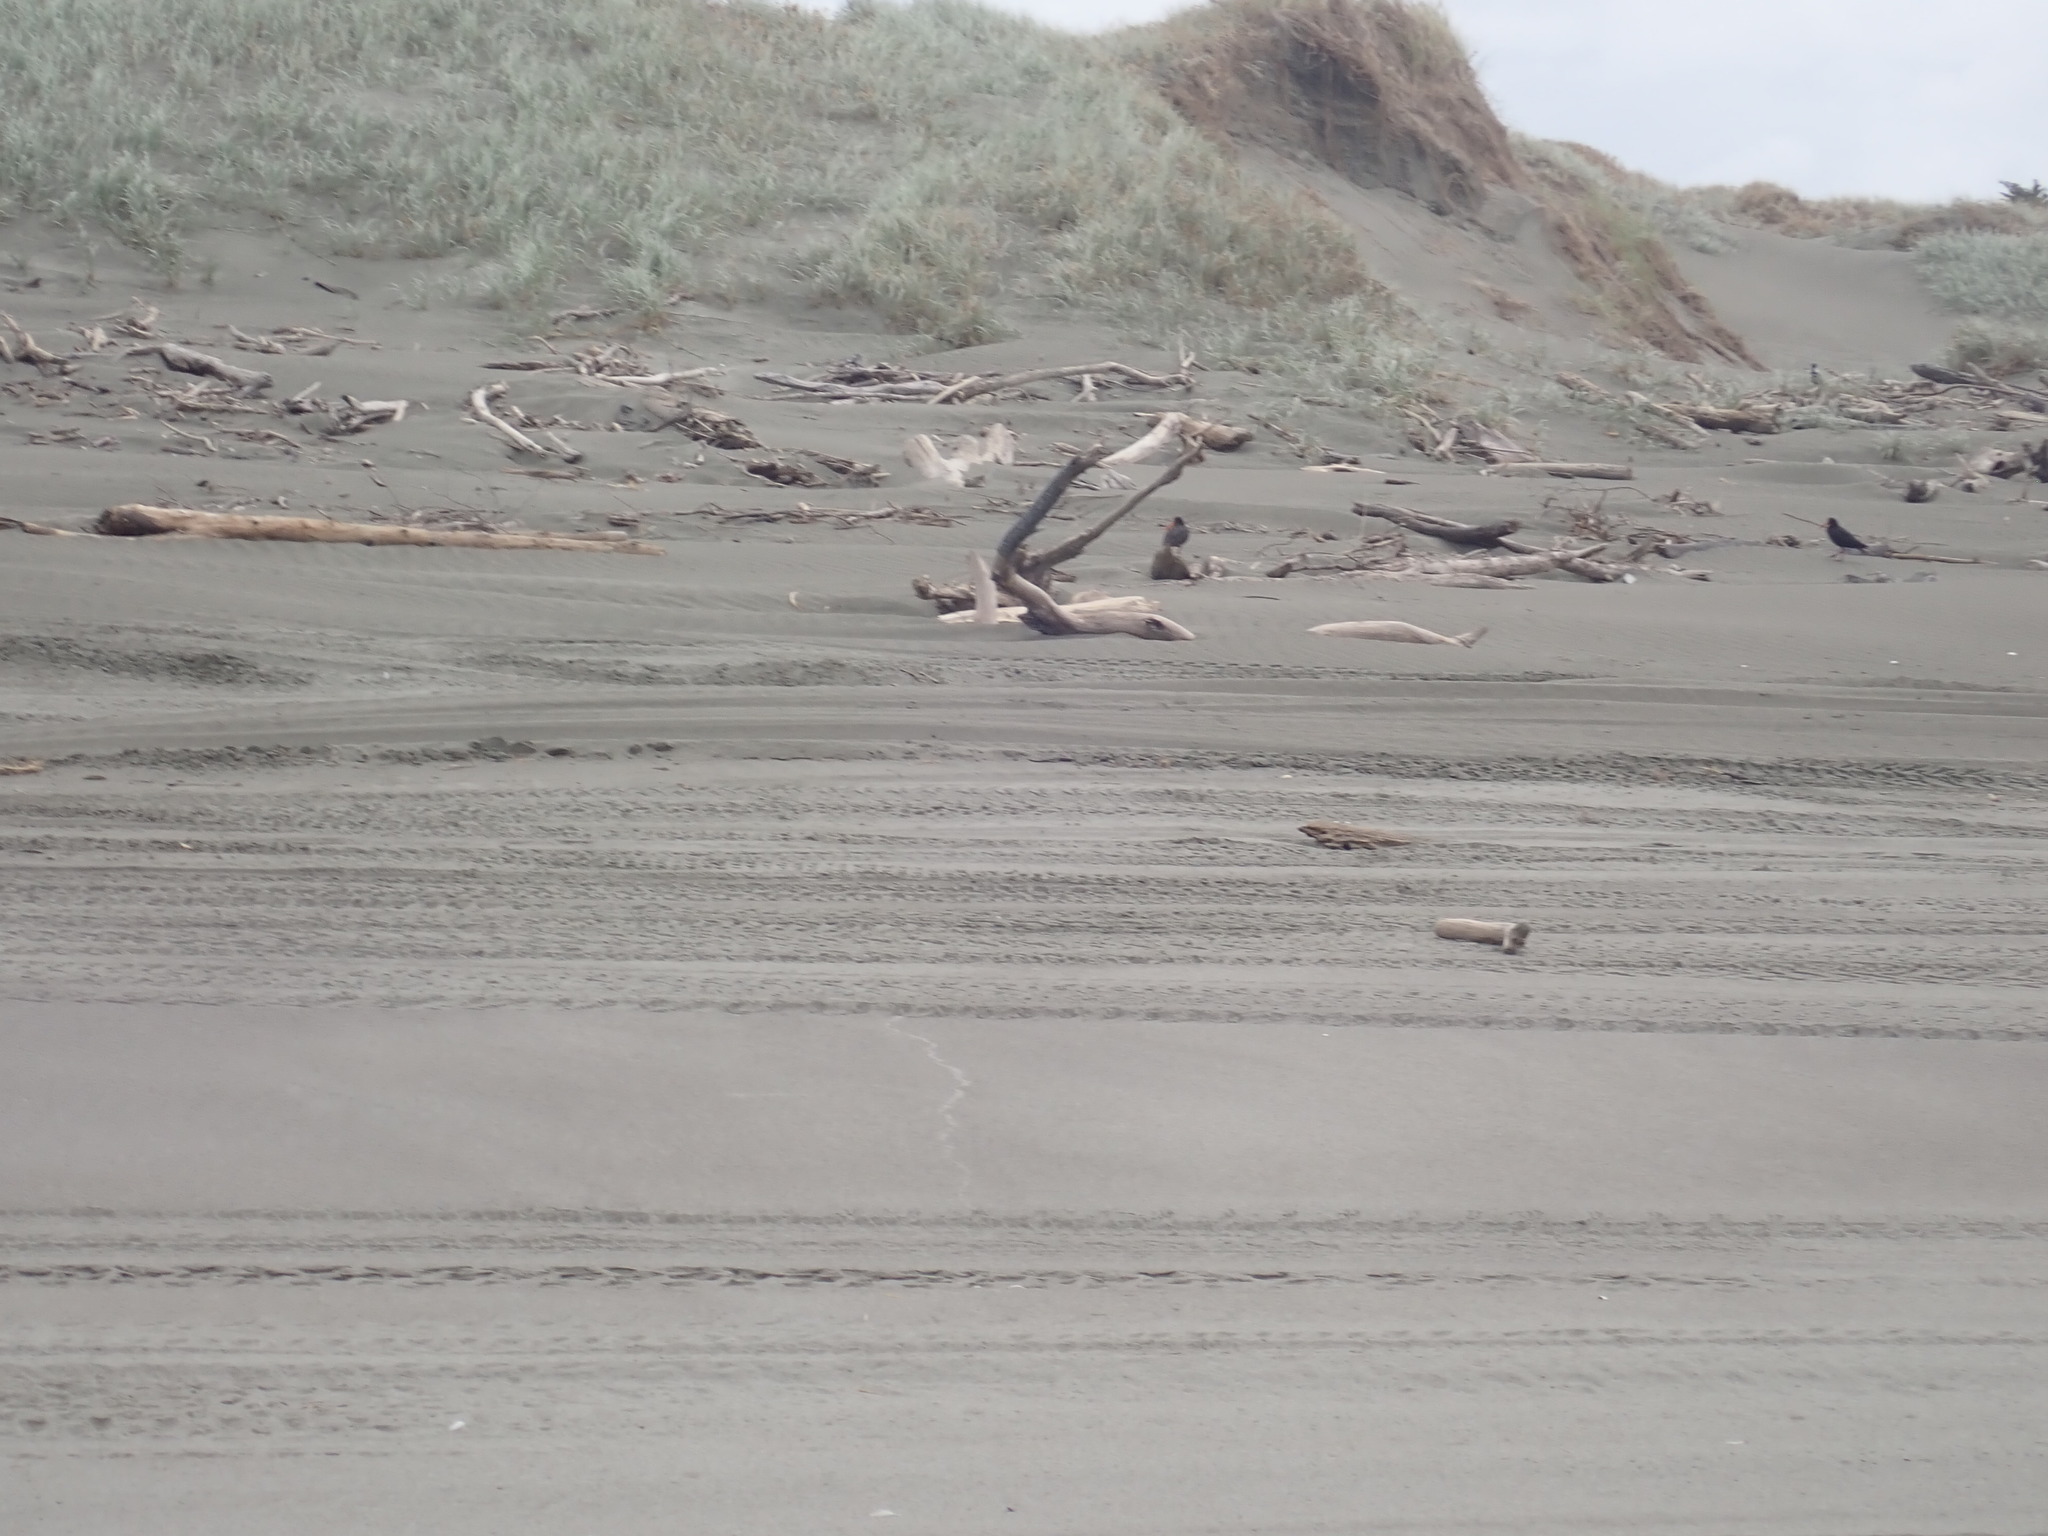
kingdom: Animalia
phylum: Chordata
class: Aves
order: Charadriiformes
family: Haematopodidae
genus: Haematopus
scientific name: Haematopus unicolor
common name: Variable oystercatcher
